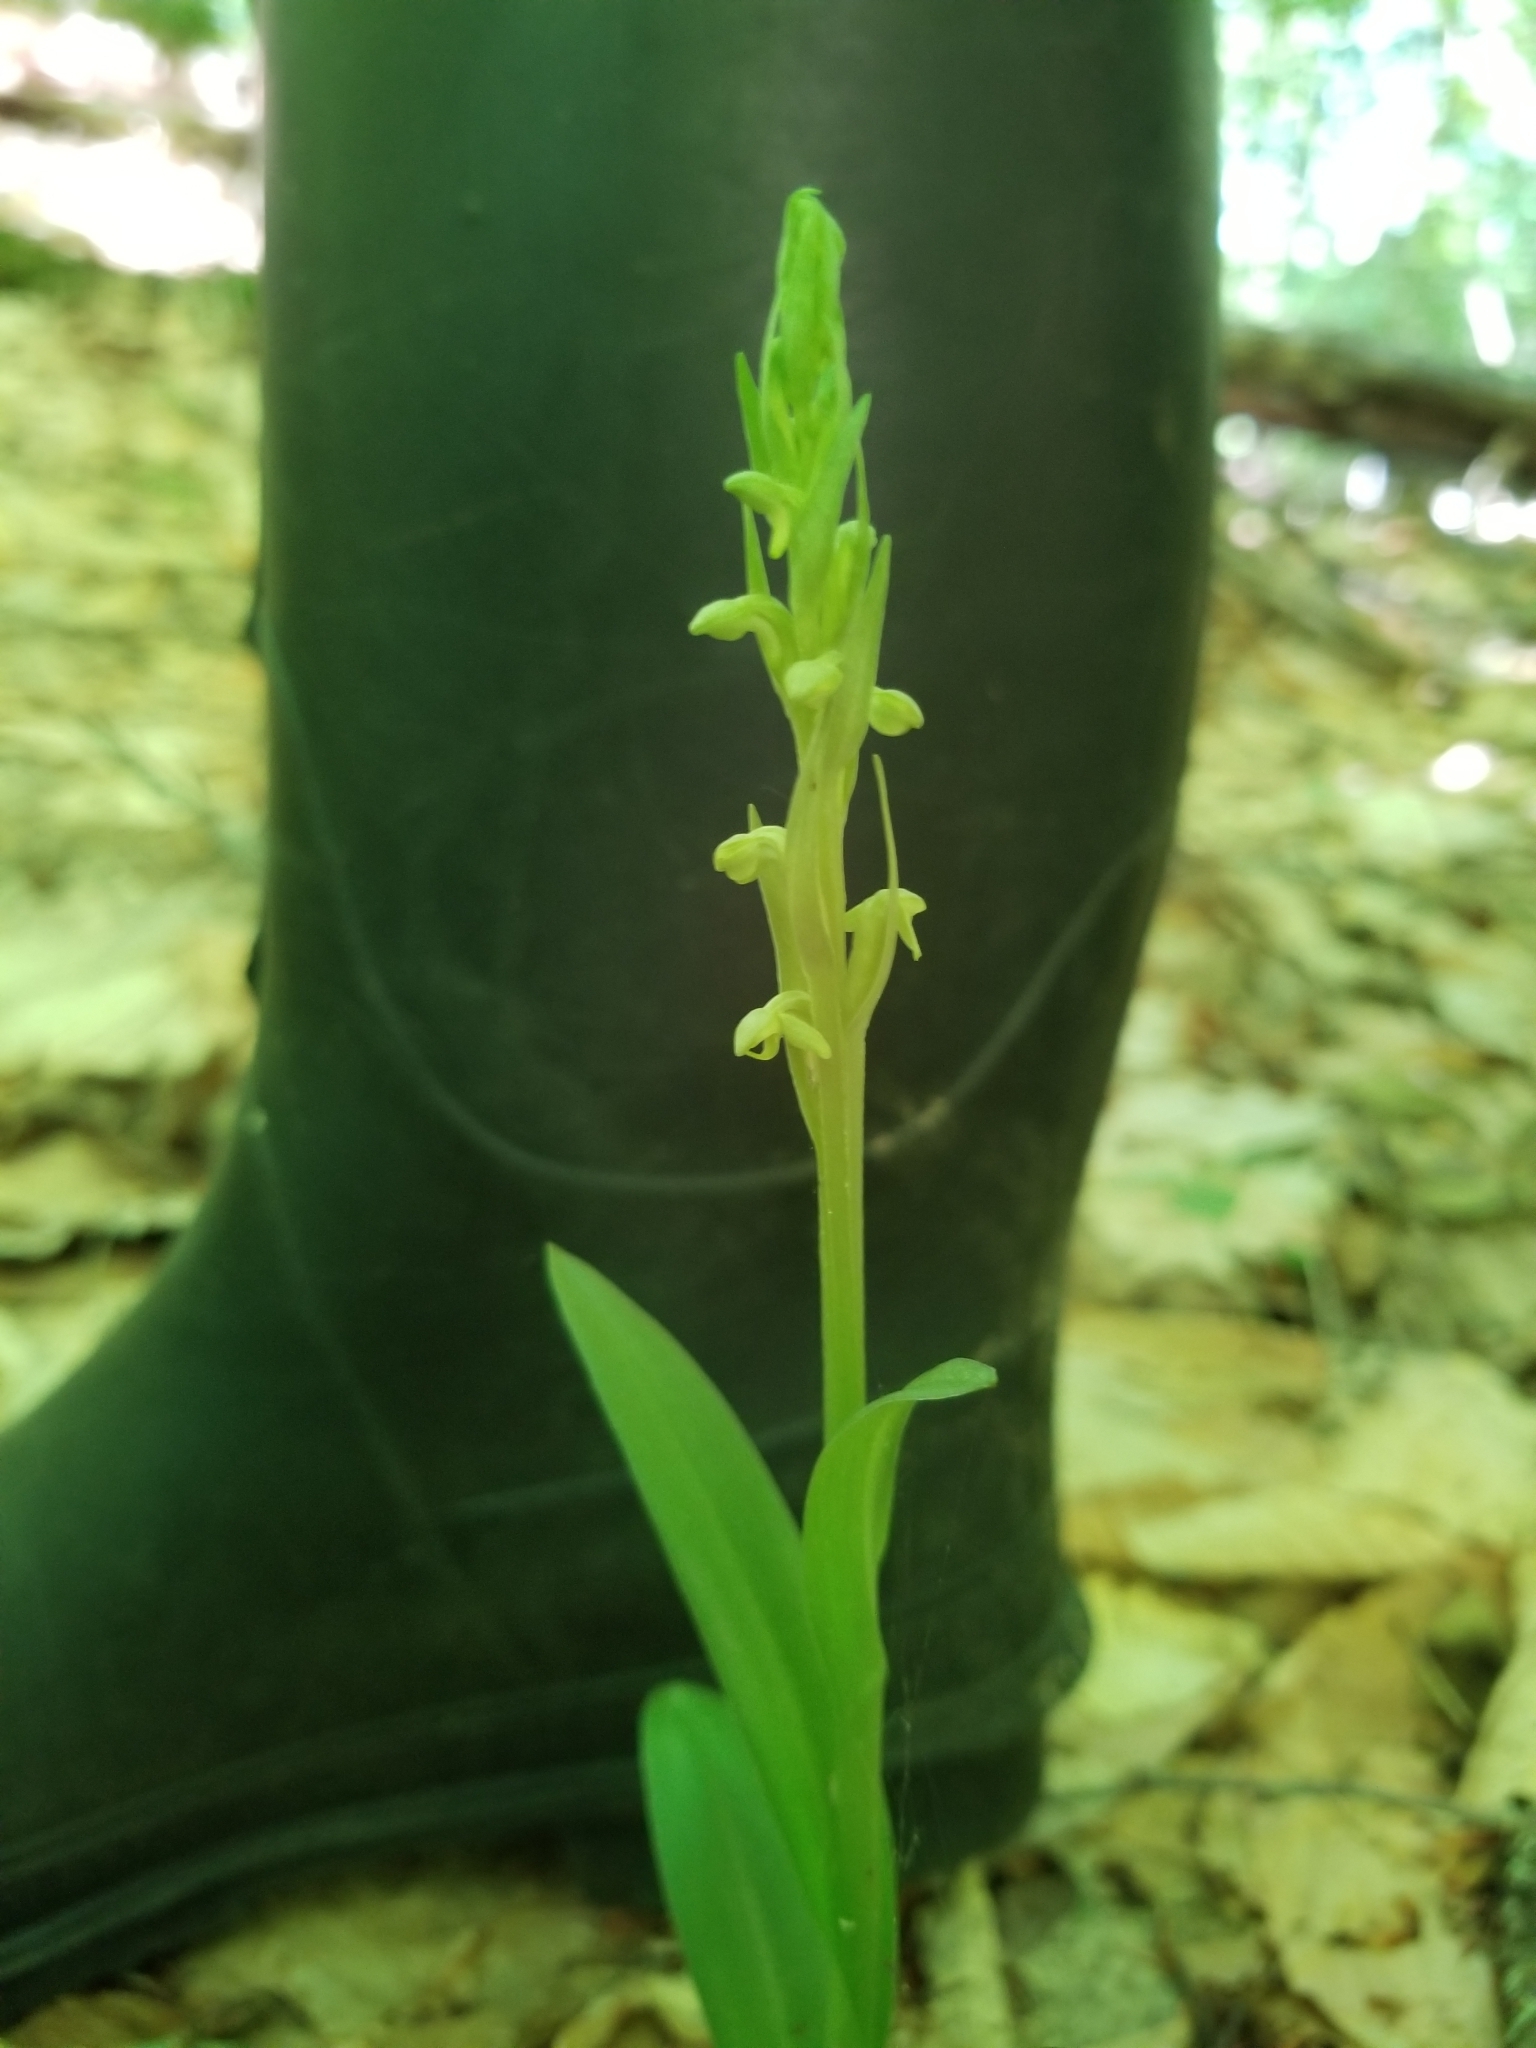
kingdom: Plantae
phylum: Tracheophyta
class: Liliopsida
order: Asparagales
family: Orchidaceae
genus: Platanthera
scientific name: Platanthera aquilonis
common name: Northern green orchid
